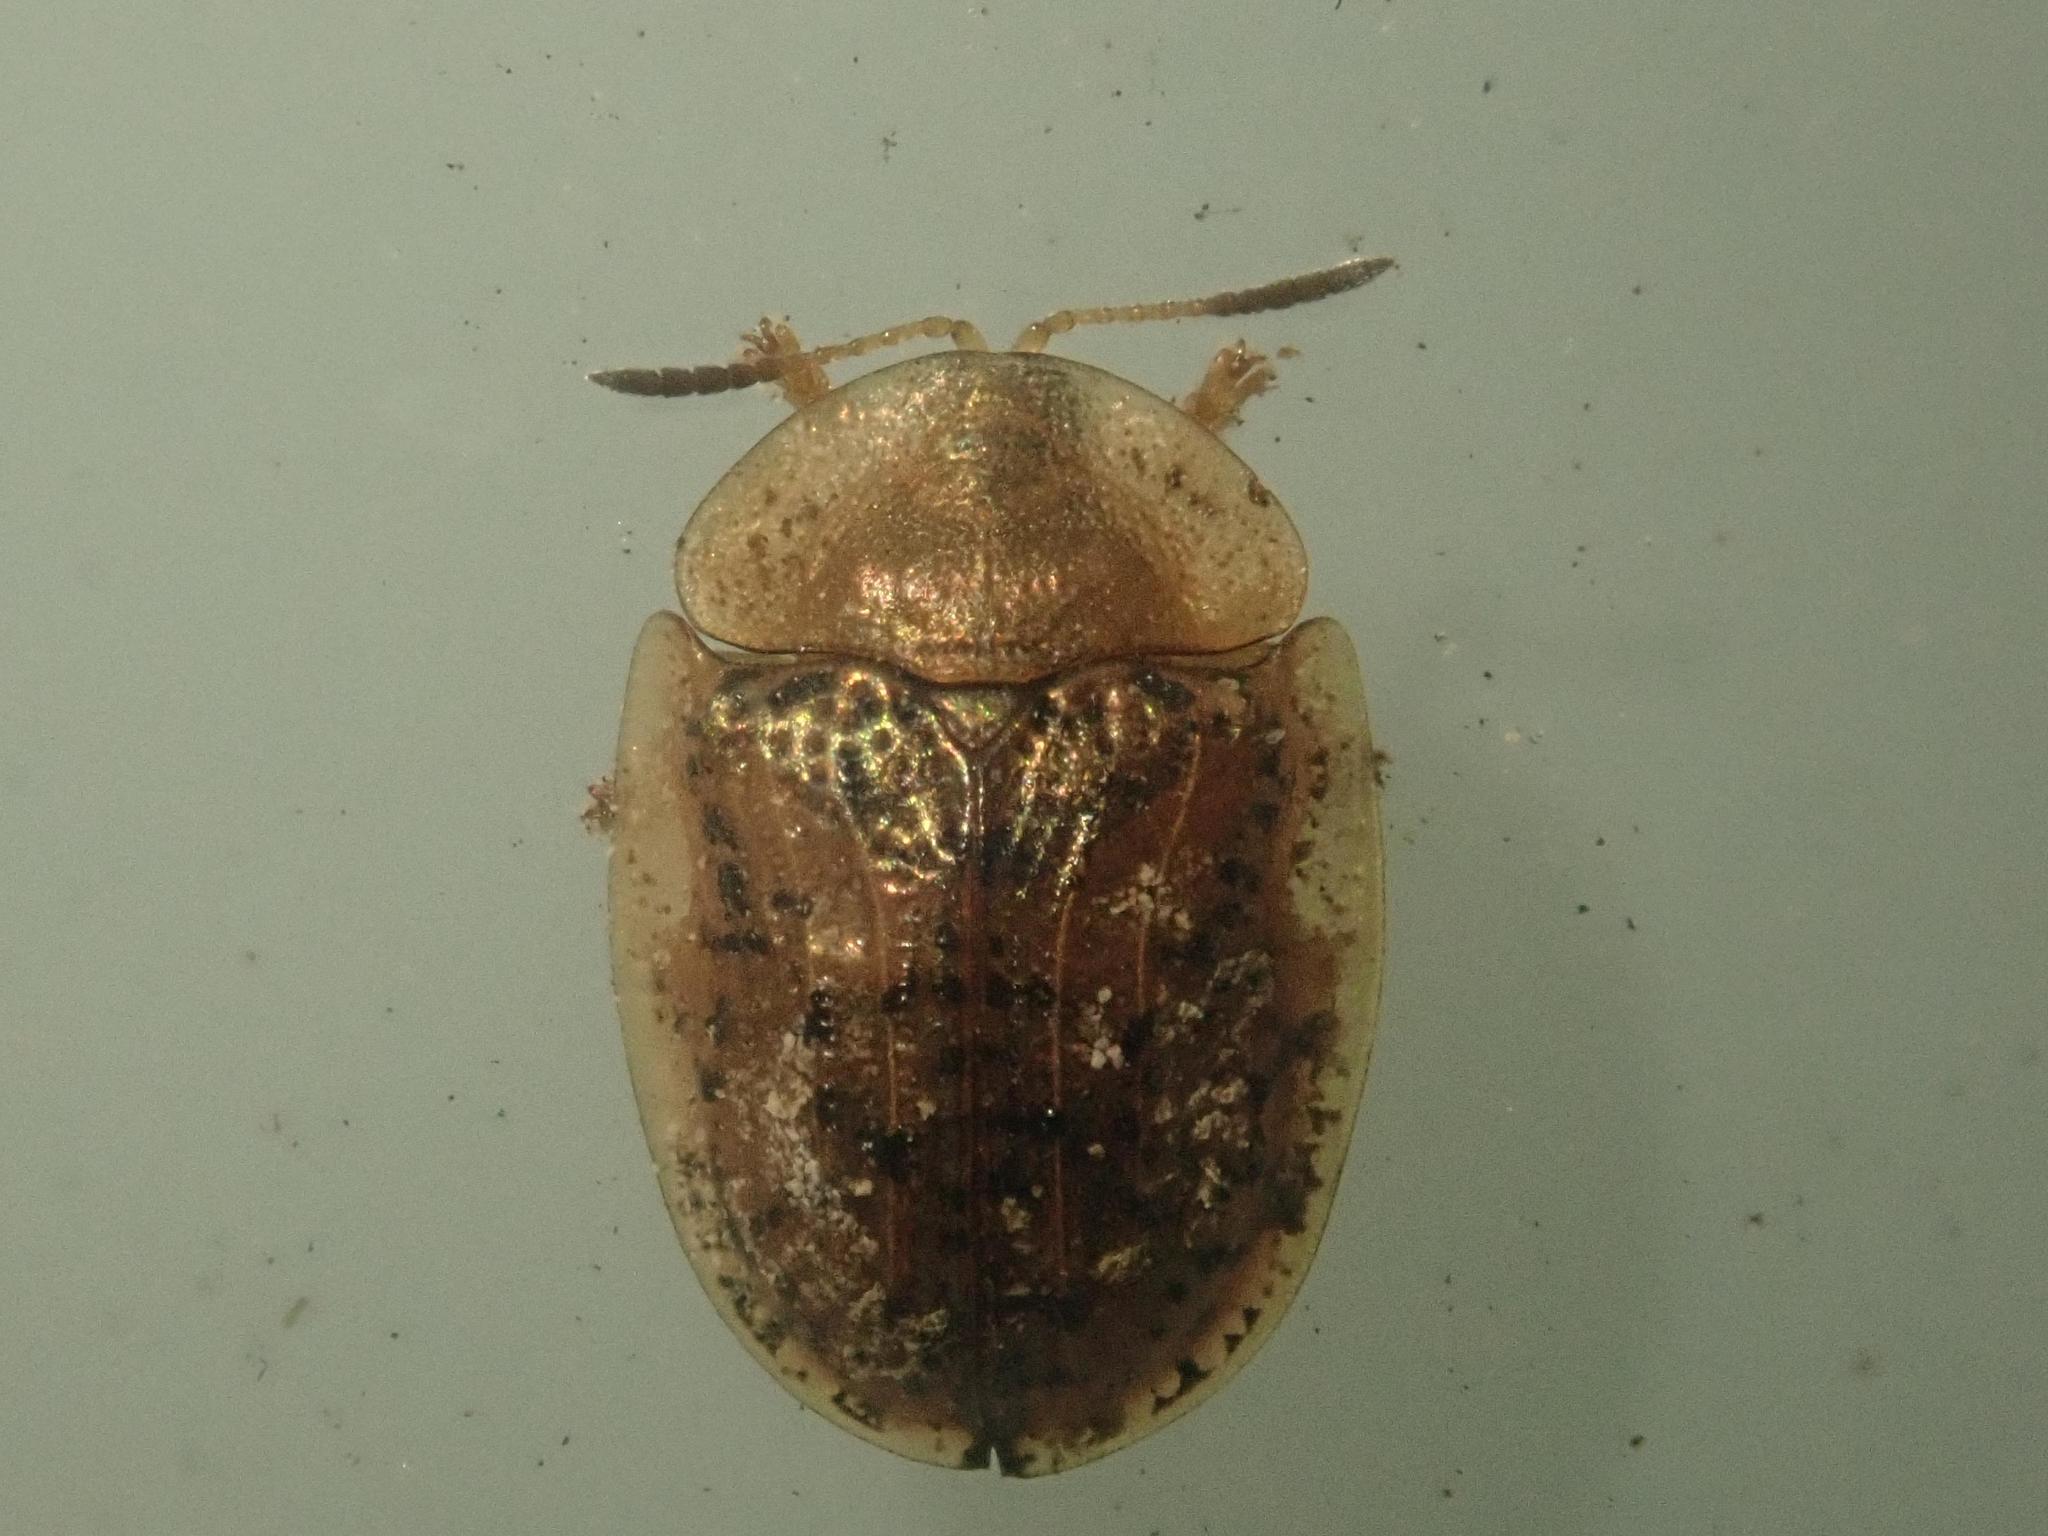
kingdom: Animalia
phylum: Arthropoda
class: Insecta
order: Coleoptera
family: Chrysomelidae
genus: Cassida
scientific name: Cassida nebulosa
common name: Beet tortoise beetle
